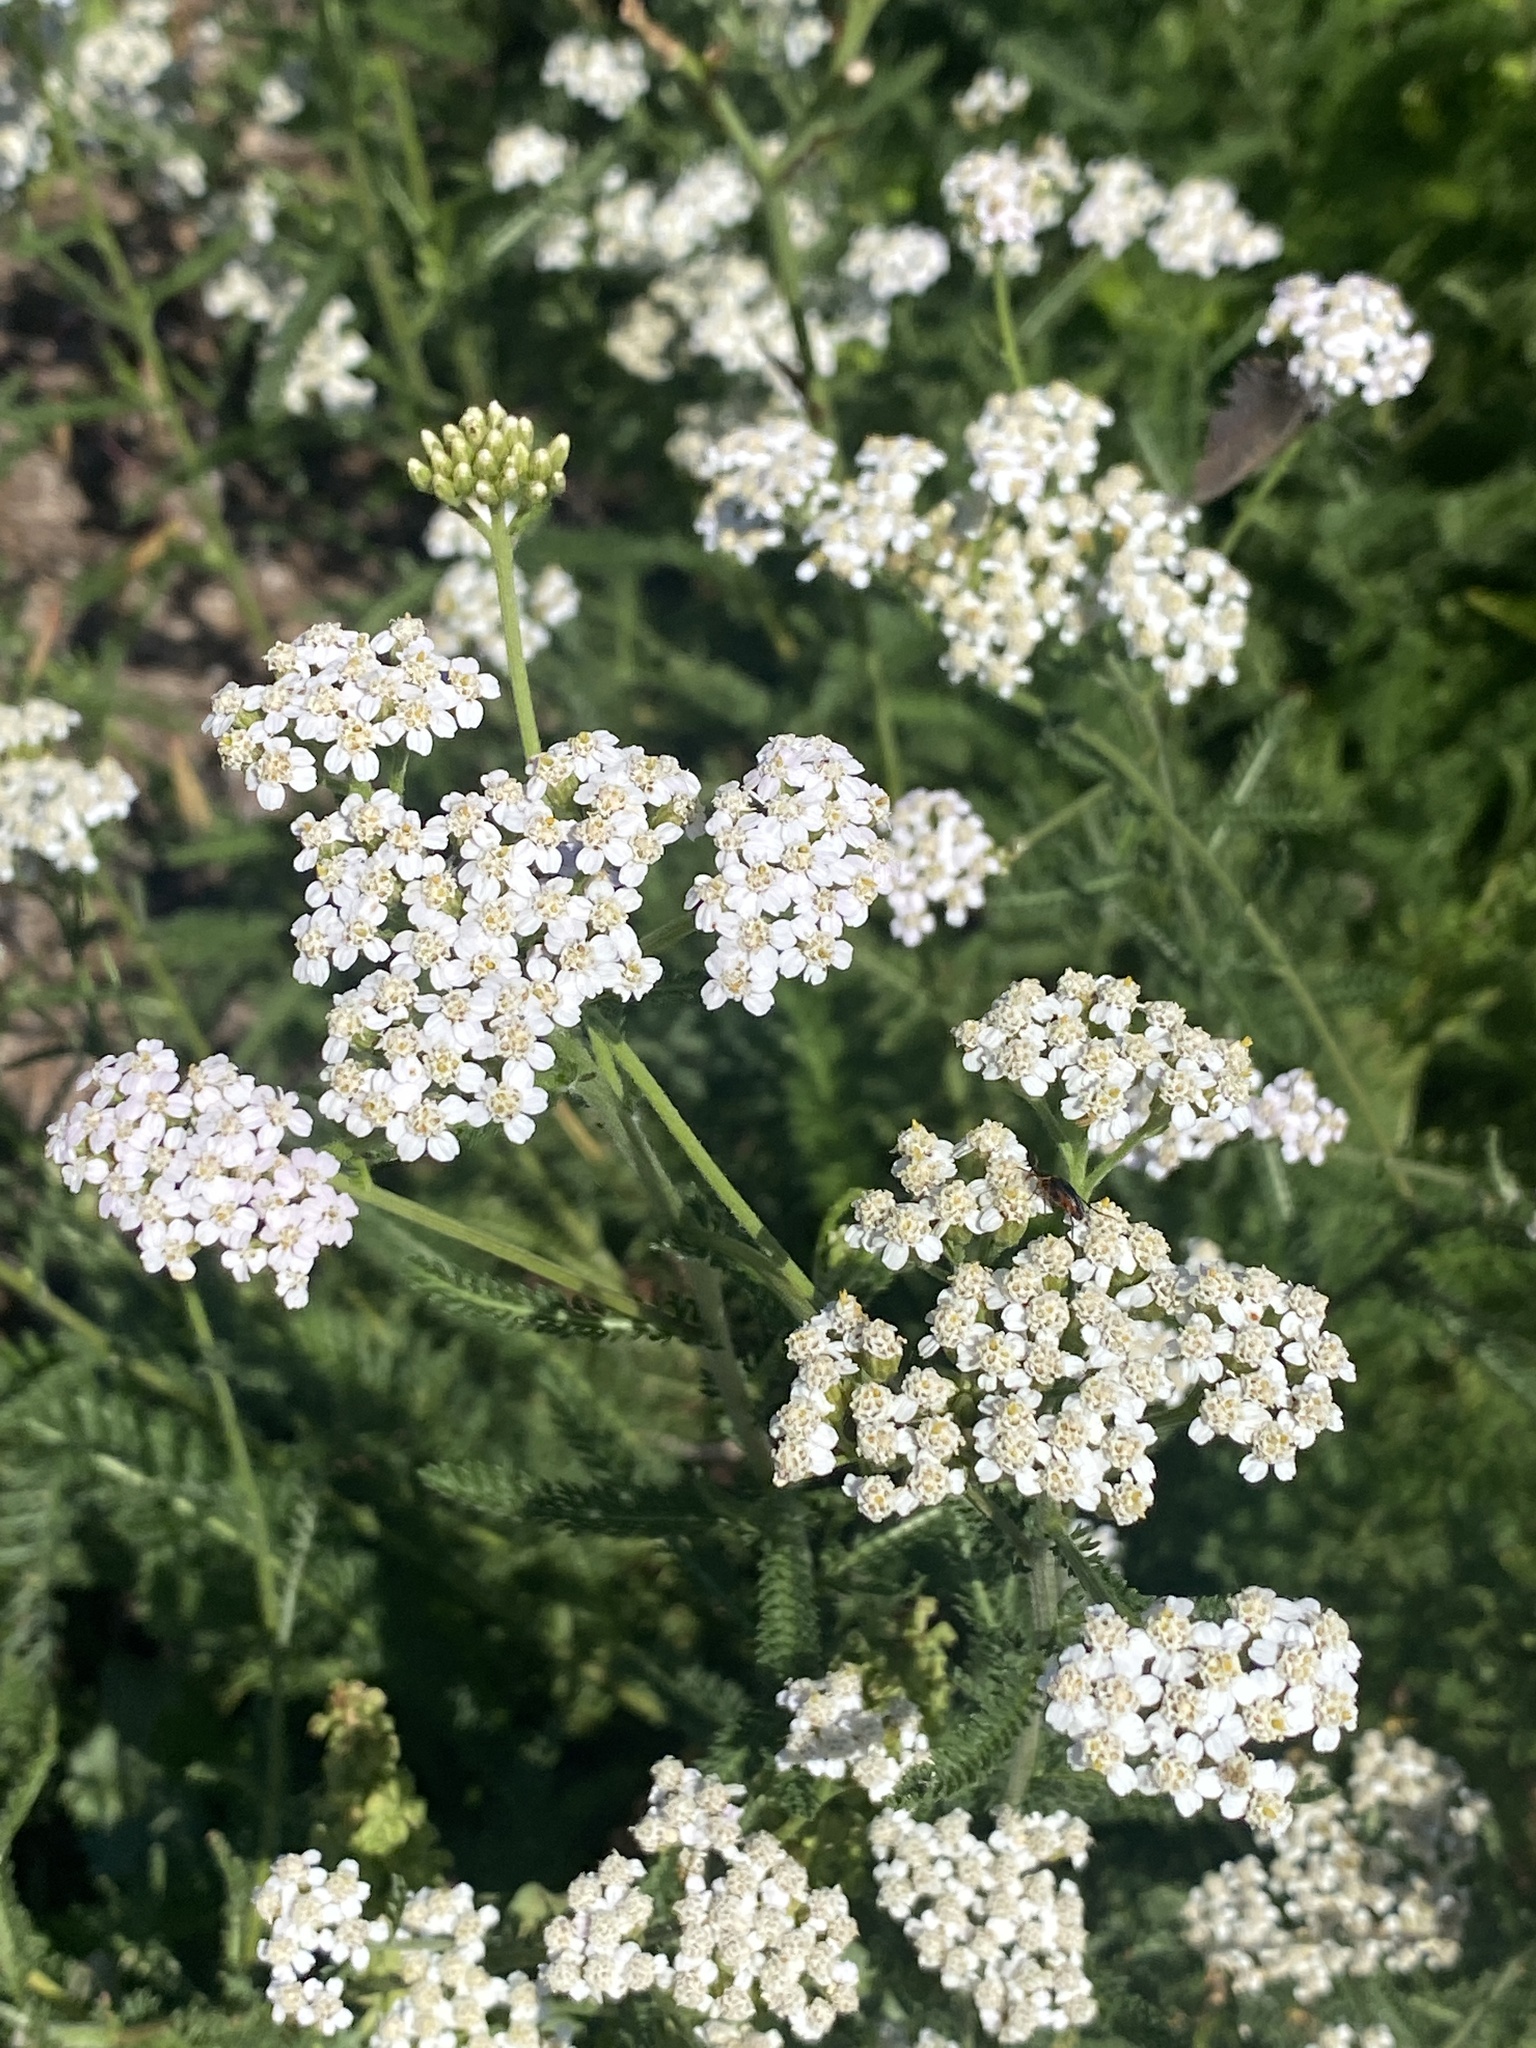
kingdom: Plantae
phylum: Tracheophyta
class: Magnoliopsida
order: Asterales
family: Asteraceae
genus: Achillea
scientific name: Achillea millefolium
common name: Yarrow
